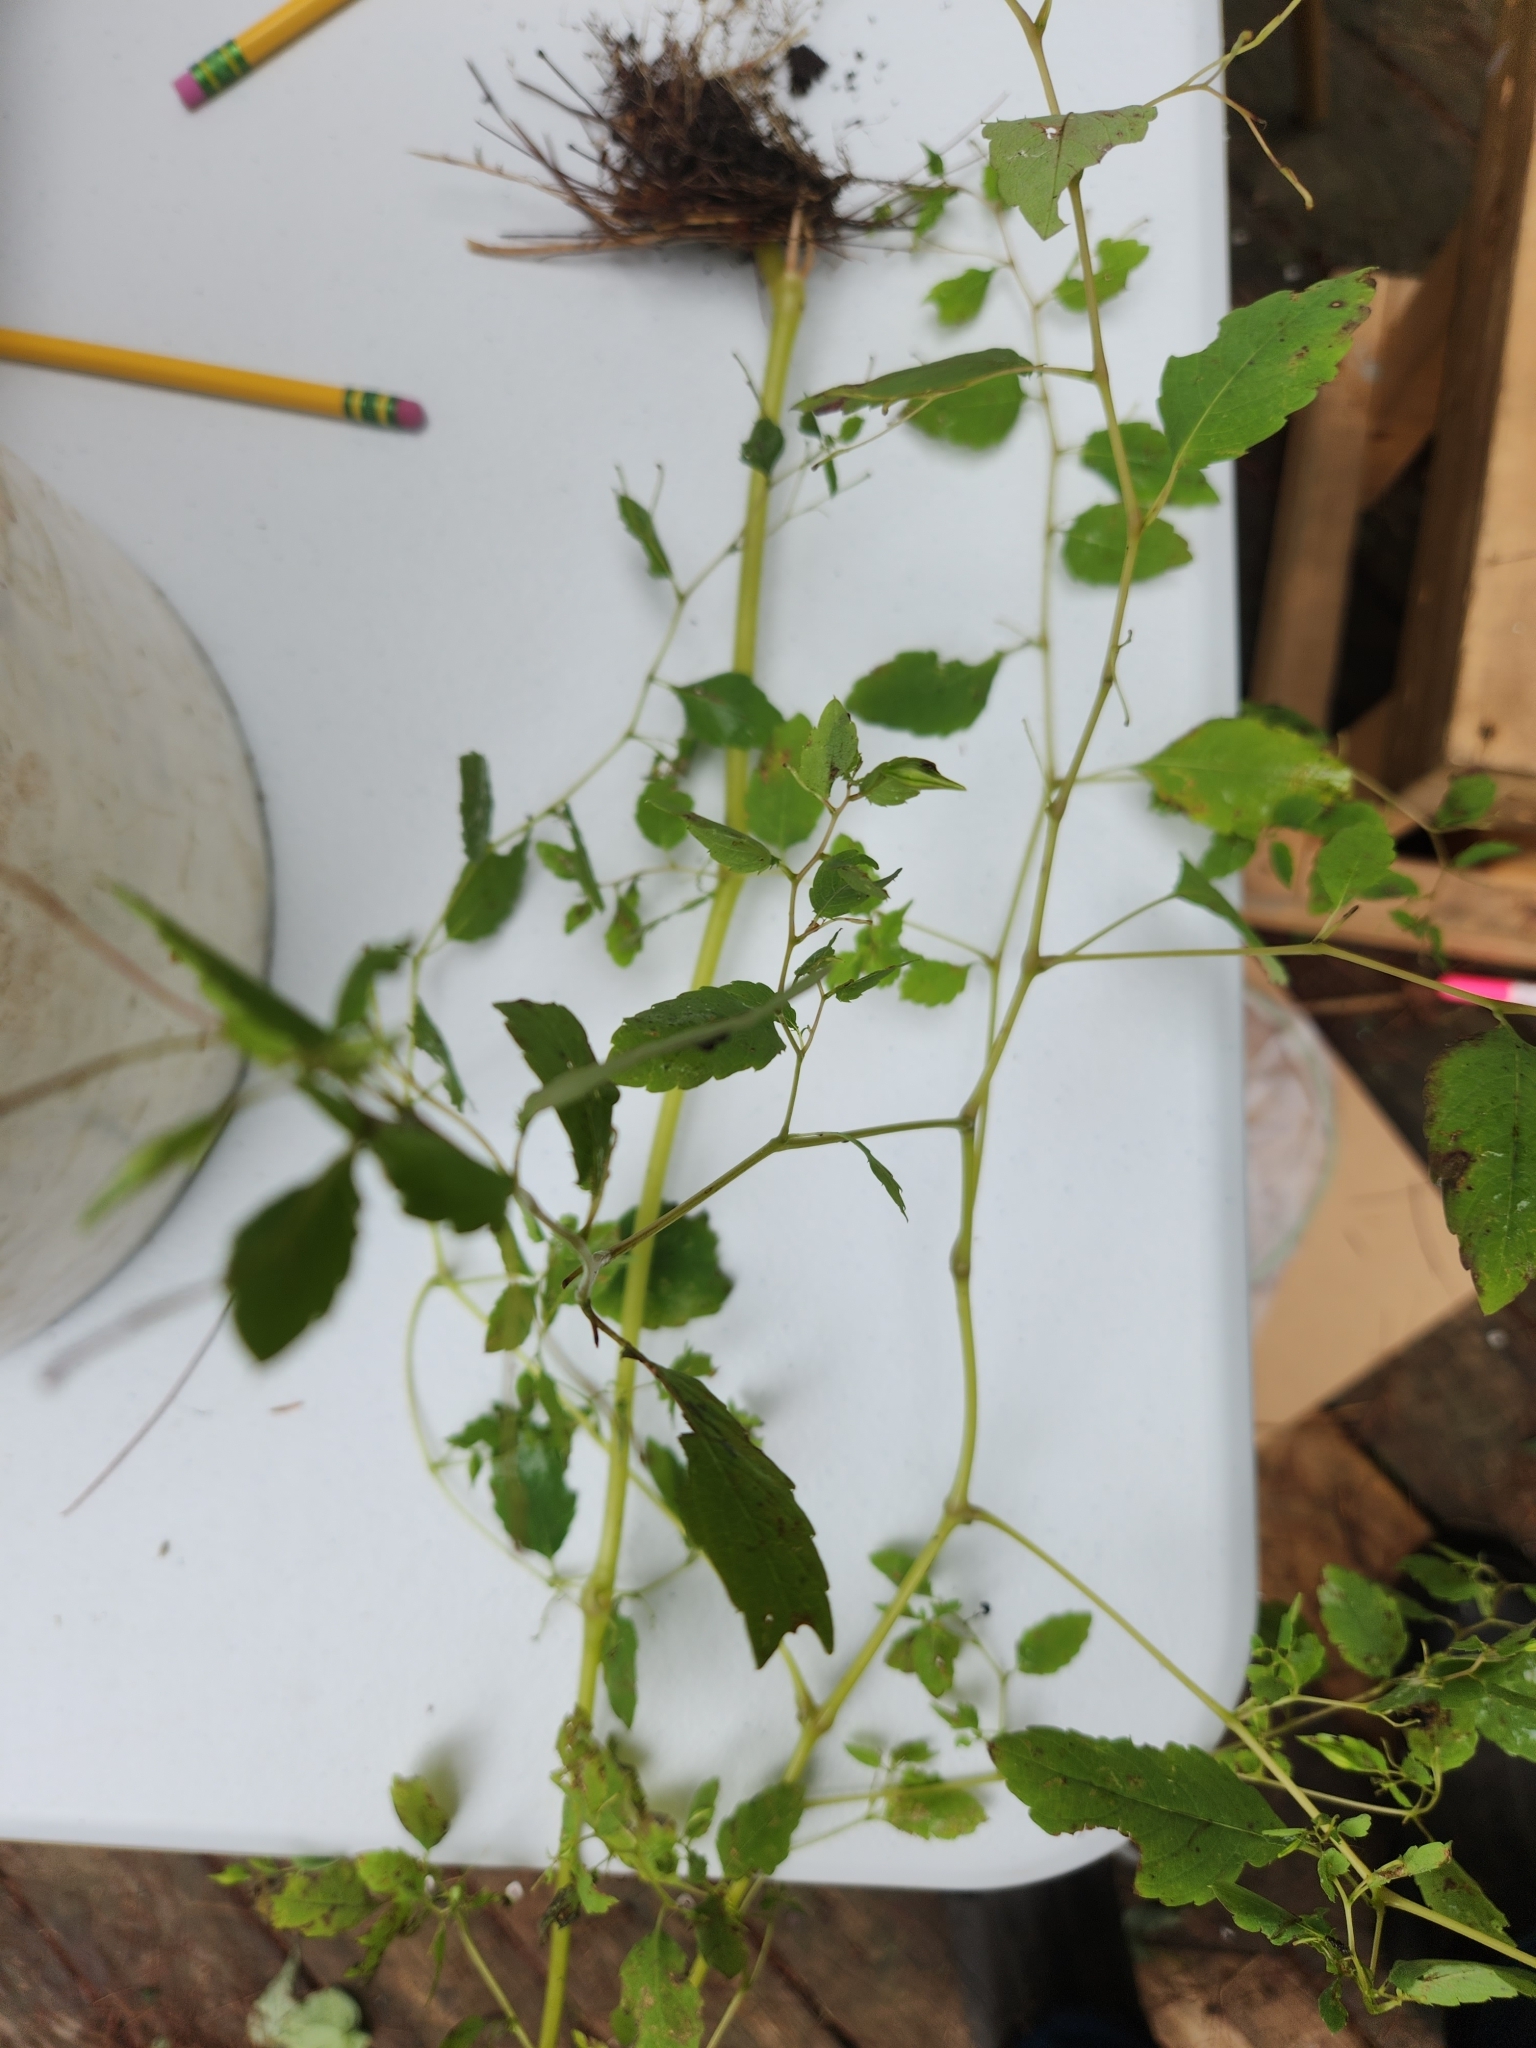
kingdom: Plantae
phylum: Tracheophyta
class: Magnoliopsida
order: Ericales
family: Balsaminaceae
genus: Impatiens
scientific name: Impatiens
